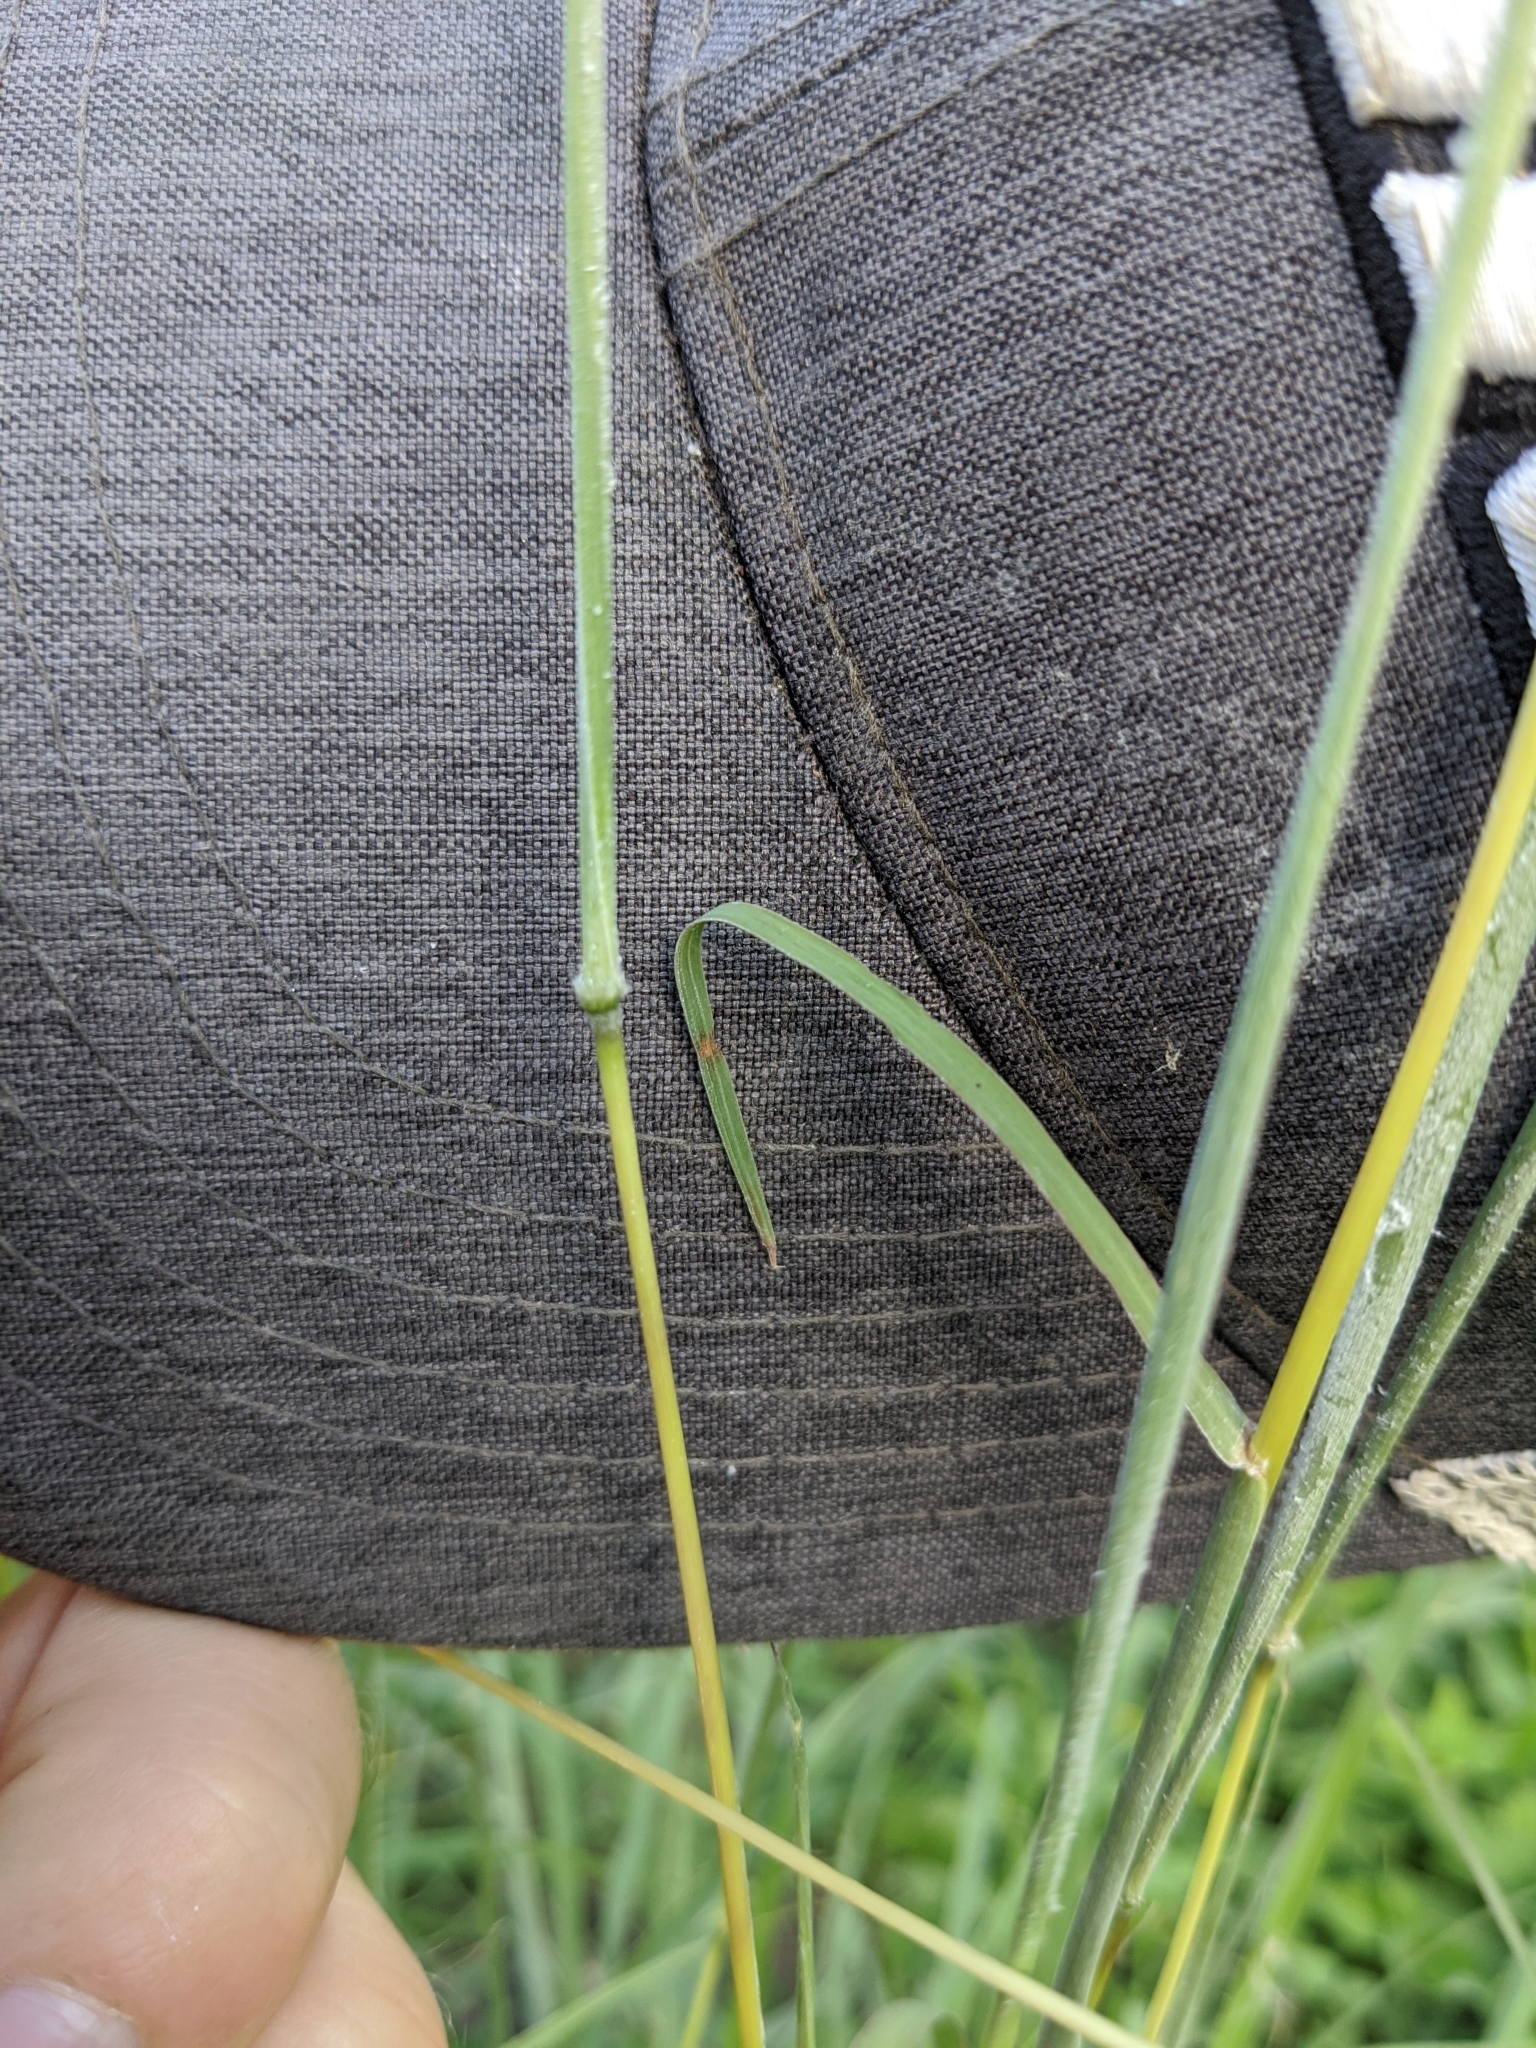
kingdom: Plantae
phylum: Tracheophyta
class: Liliopsida
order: Poales
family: Poaceae
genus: Bothriochloa
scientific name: Bothriochloa hybrida
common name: Hybrid bluestem
